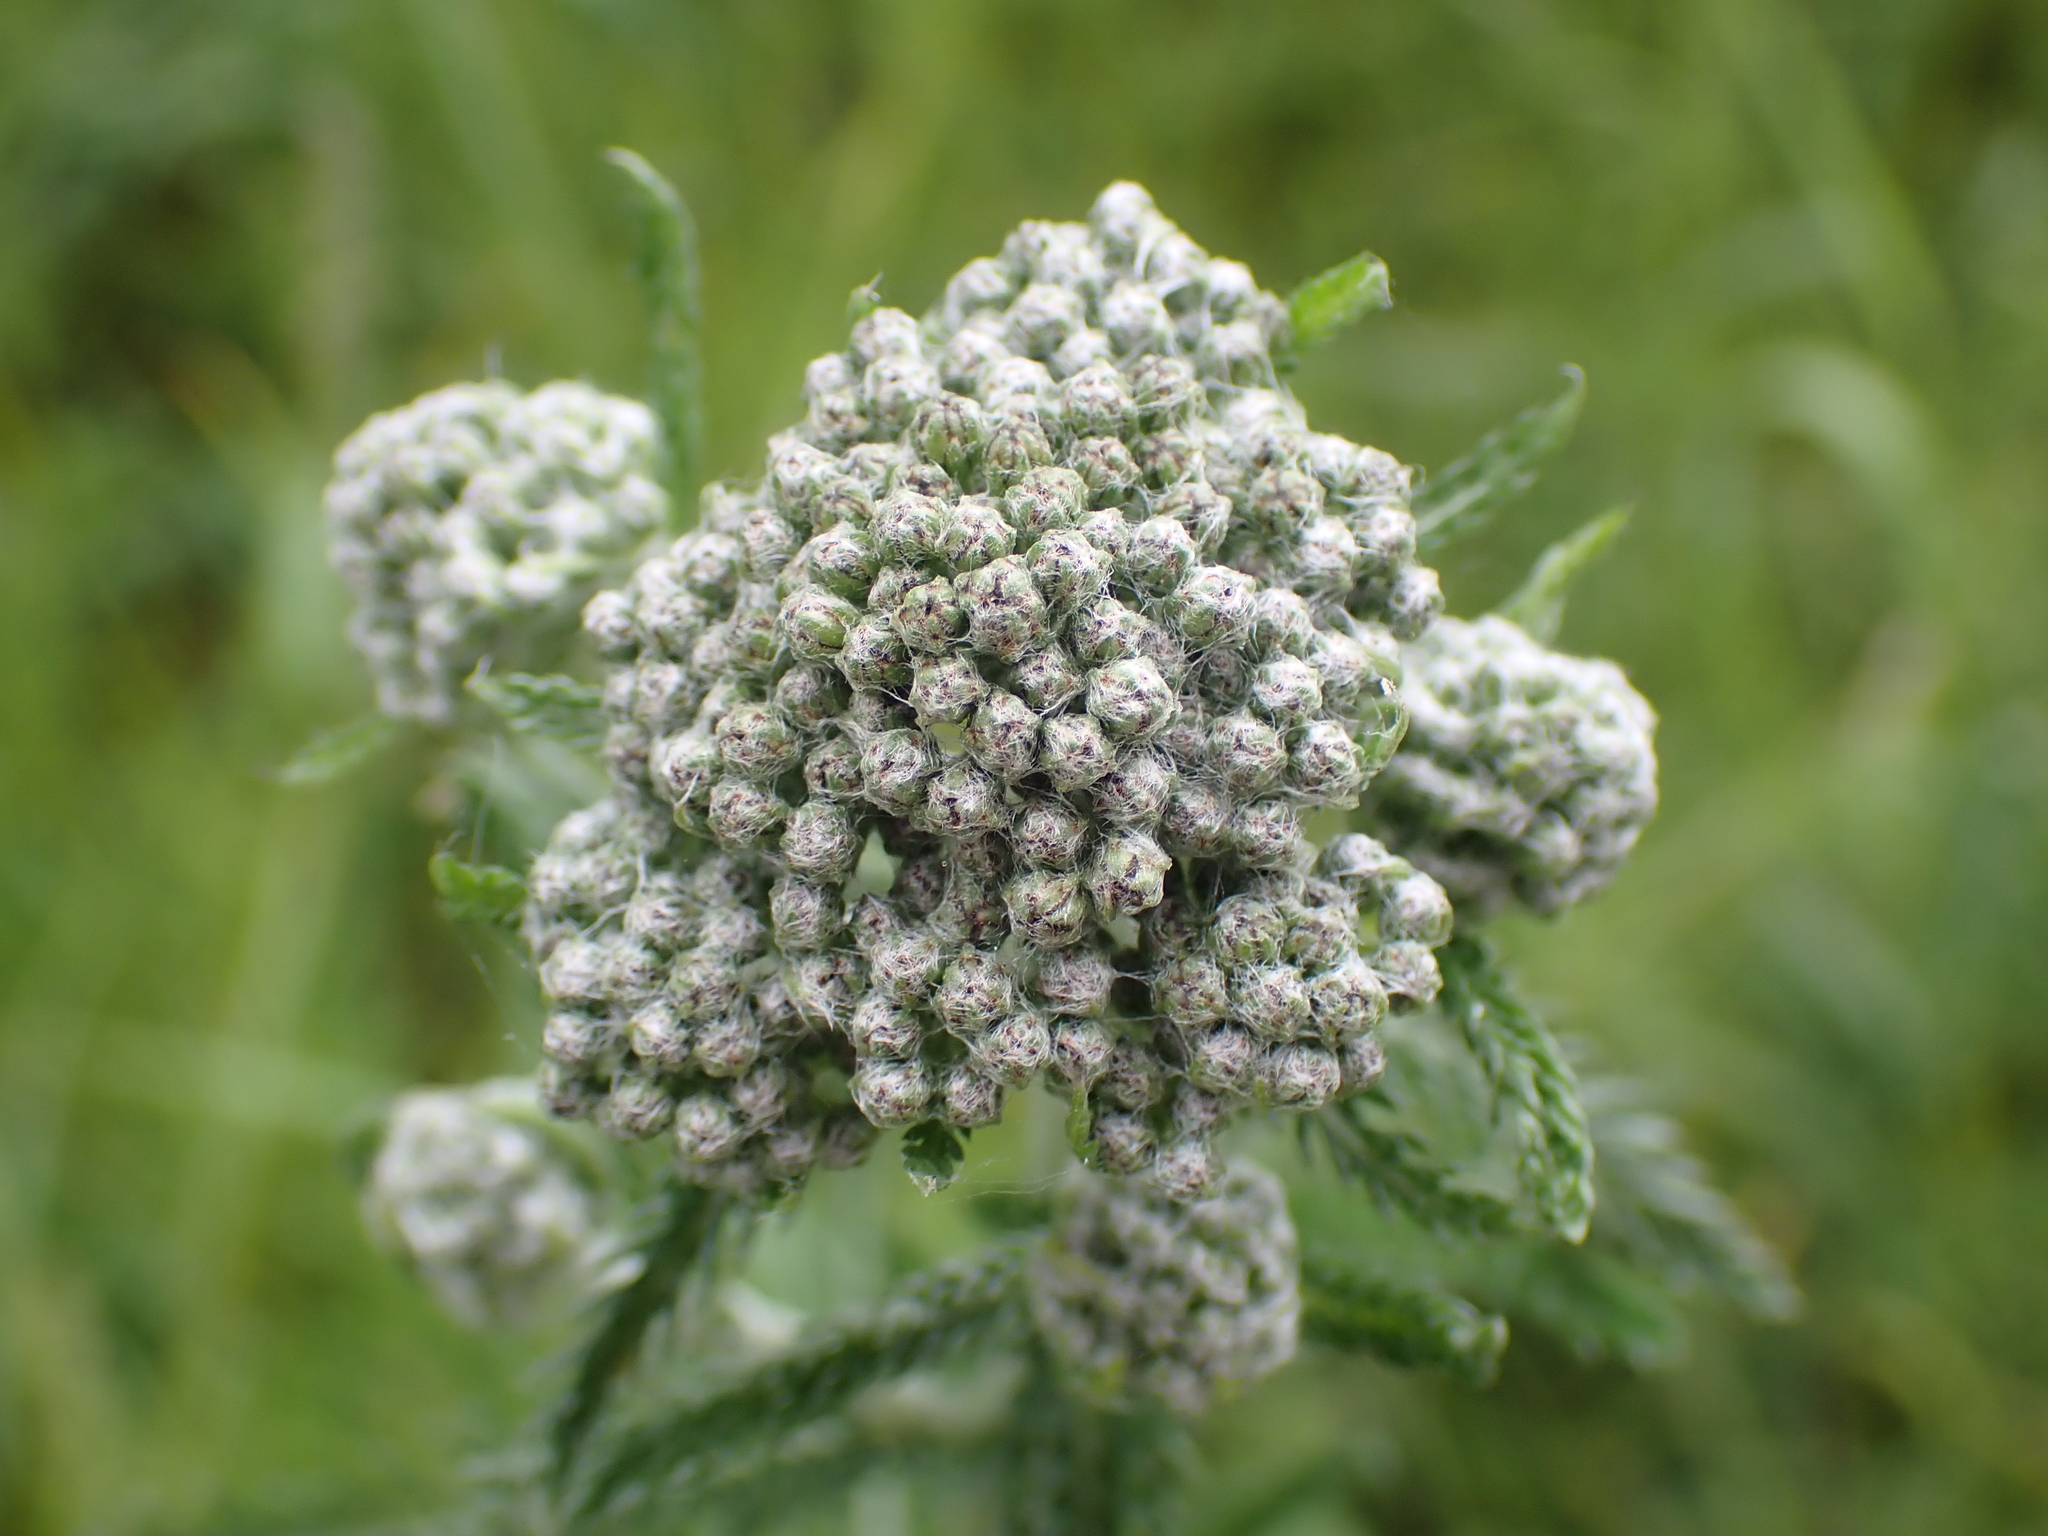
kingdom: Plantae
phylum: Tracheophyta
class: Magnoliopsida
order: Asterales
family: Asteraceae
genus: Achillea
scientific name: Achillea millefolium
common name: Yarrow
